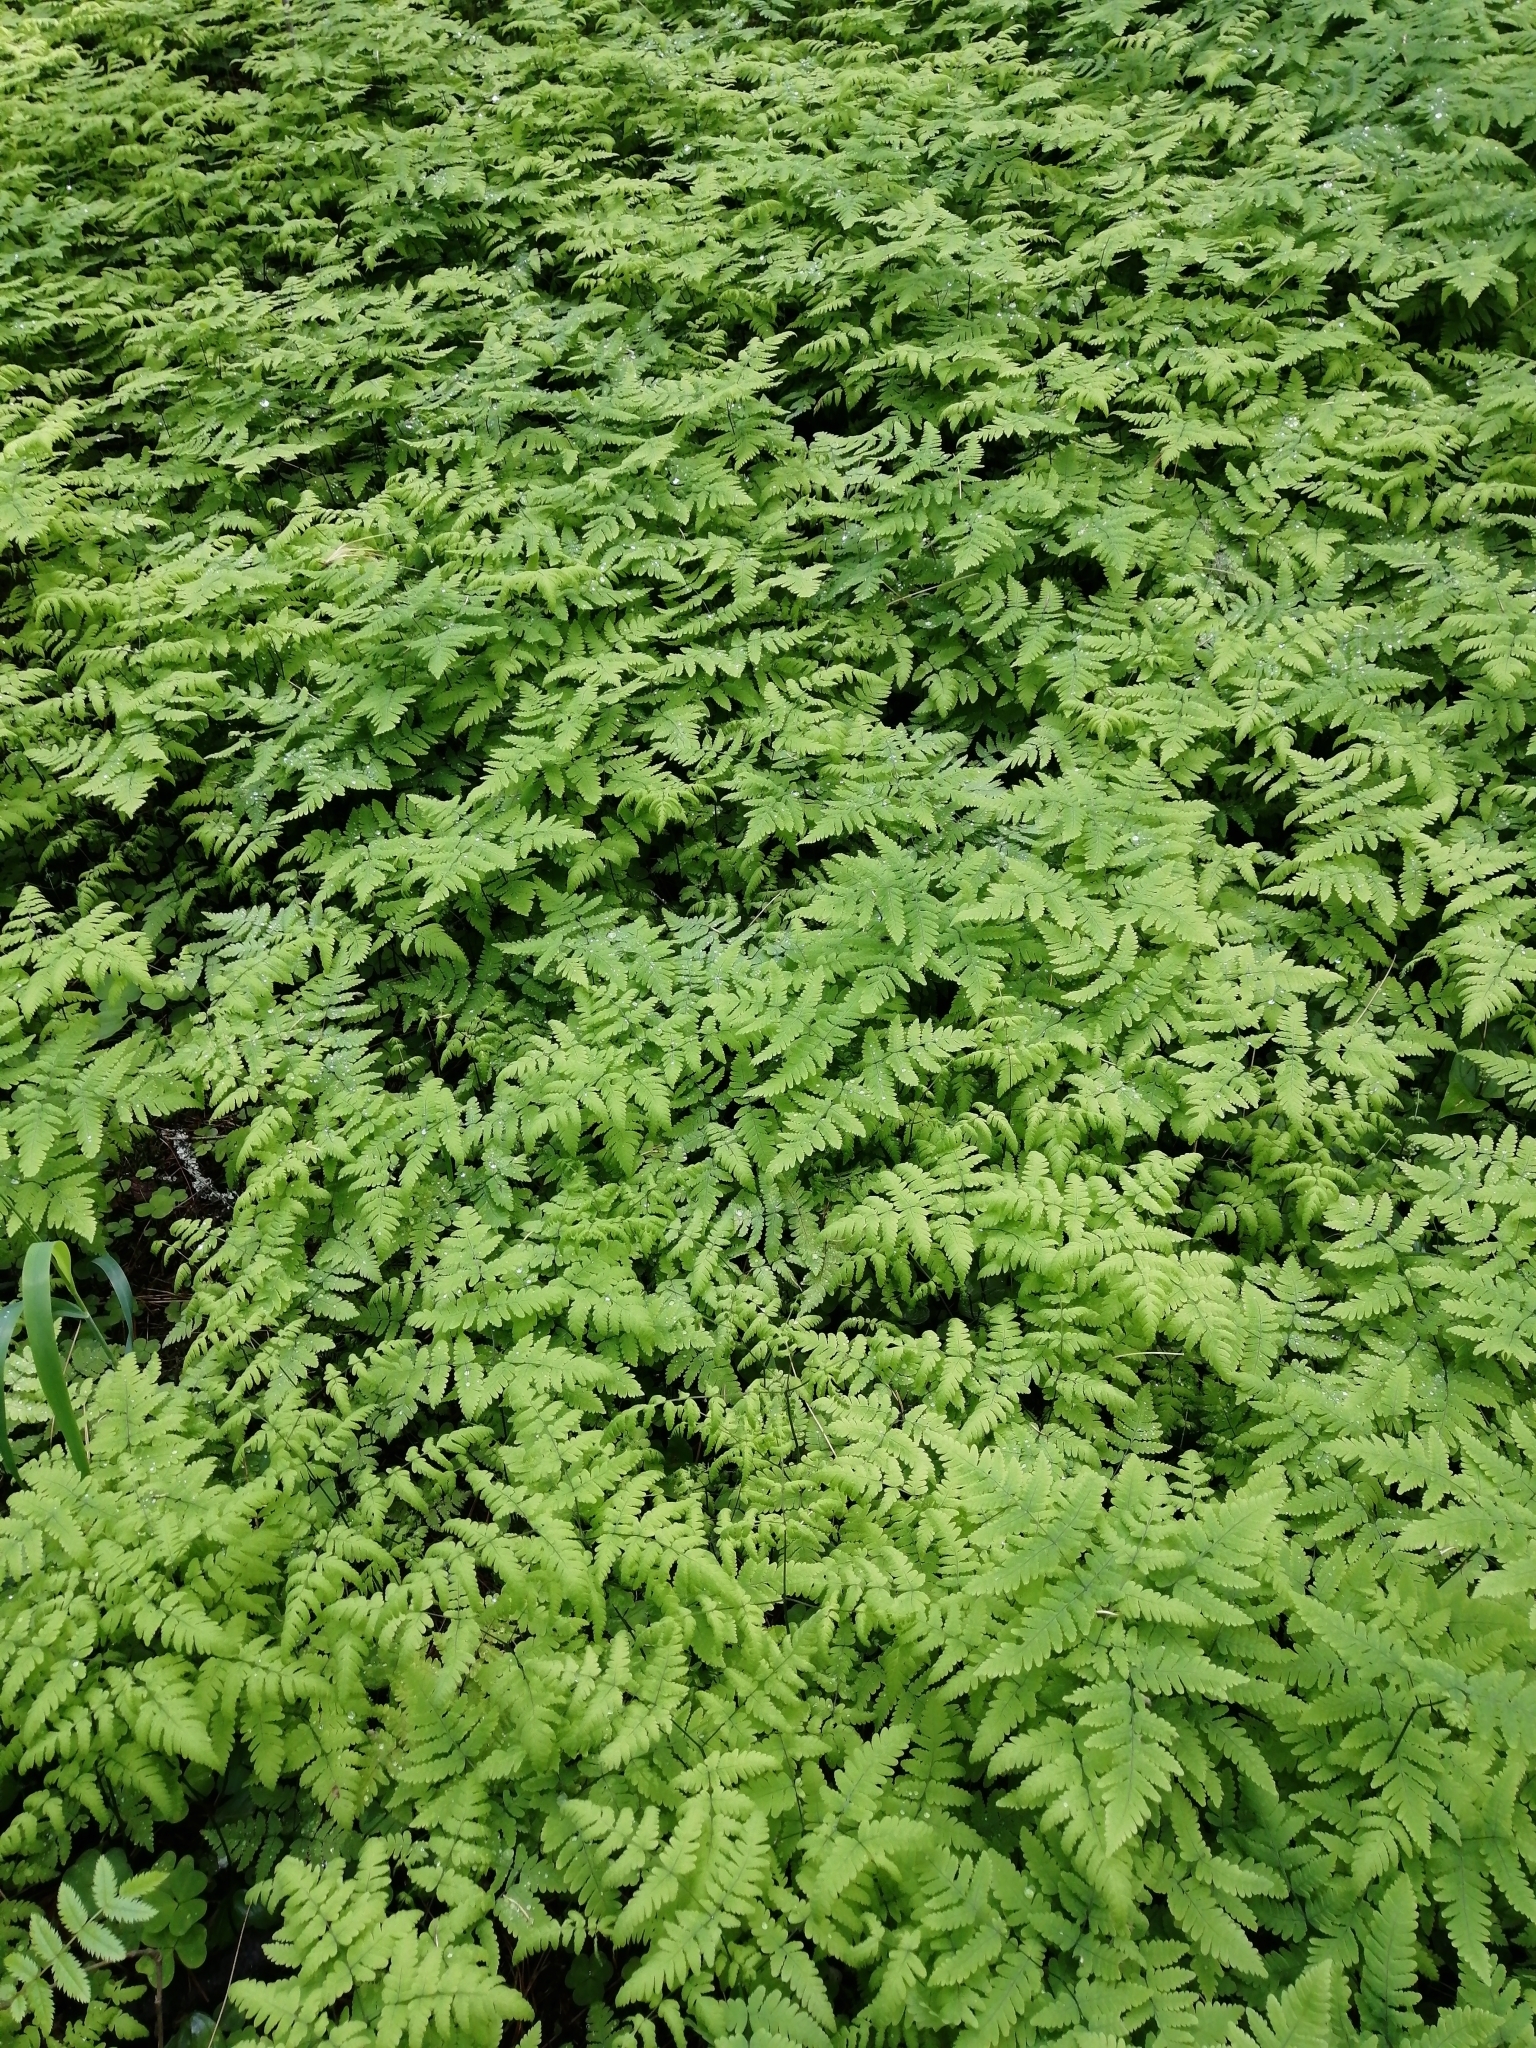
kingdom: Plantae
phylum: Tracheophyta
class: Polypodiopsida
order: Polypodiales
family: Cystopteridaceae
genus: Gymnocarpium
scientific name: Gymnocarpium dryopteris
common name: Oak fern
